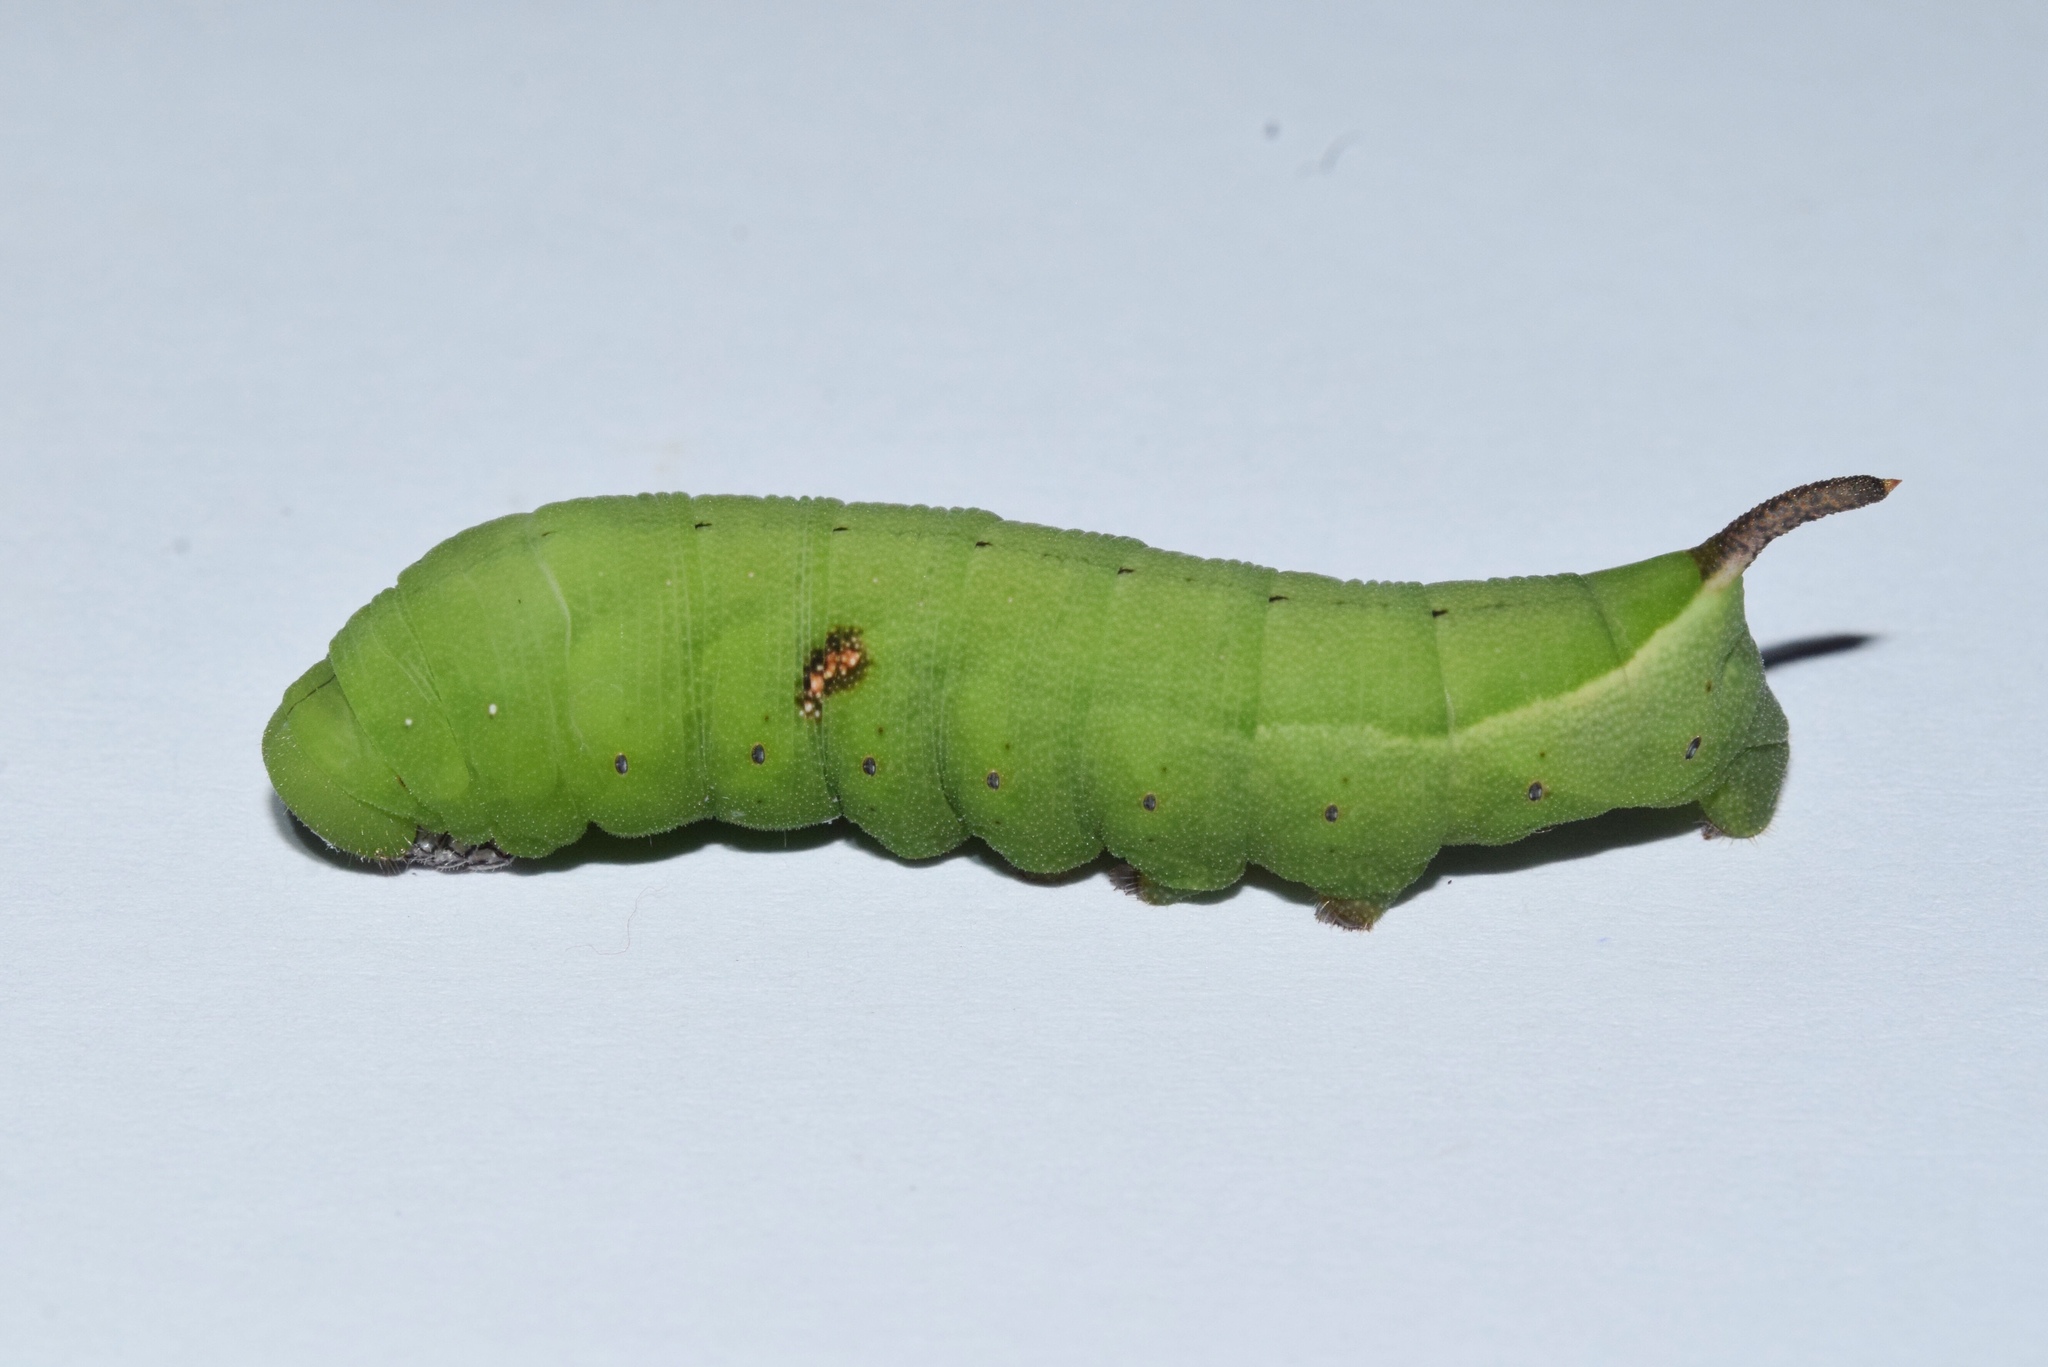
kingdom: Animalia
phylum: Arthropoda
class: Insecta
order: Lepidoptera
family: Sphingidae
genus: Nephele
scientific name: Nephele vau
